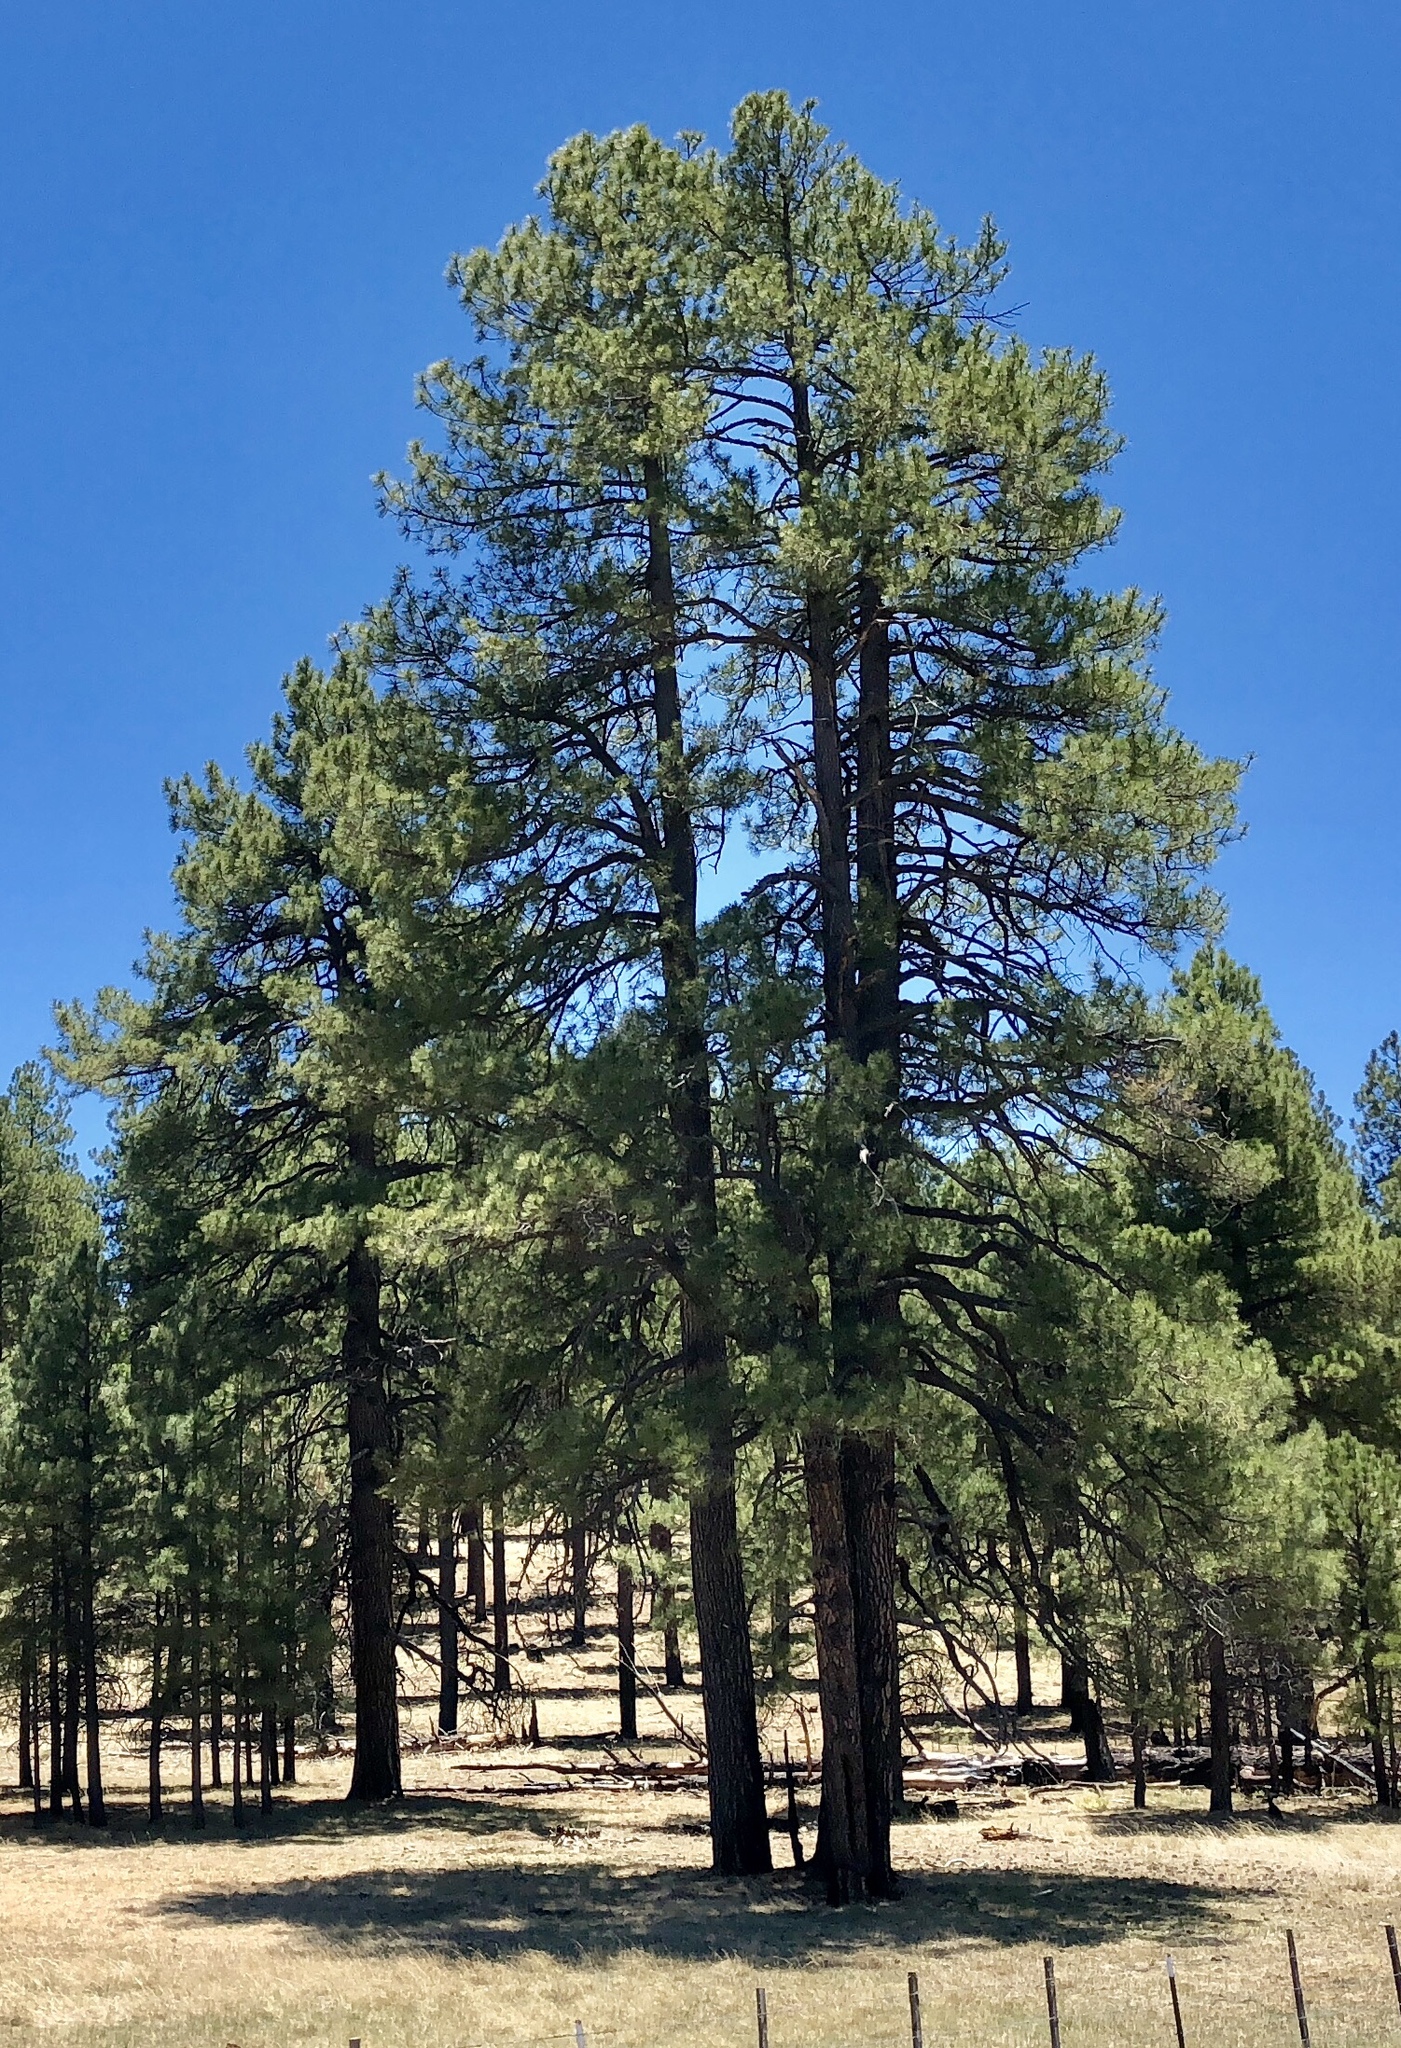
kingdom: Plantae
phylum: Tracheophyta
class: Pinopsida
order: Pinales
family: Pinaceae
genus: Pinus
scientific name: Pinus ponderosa
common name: Western yellow-pine
